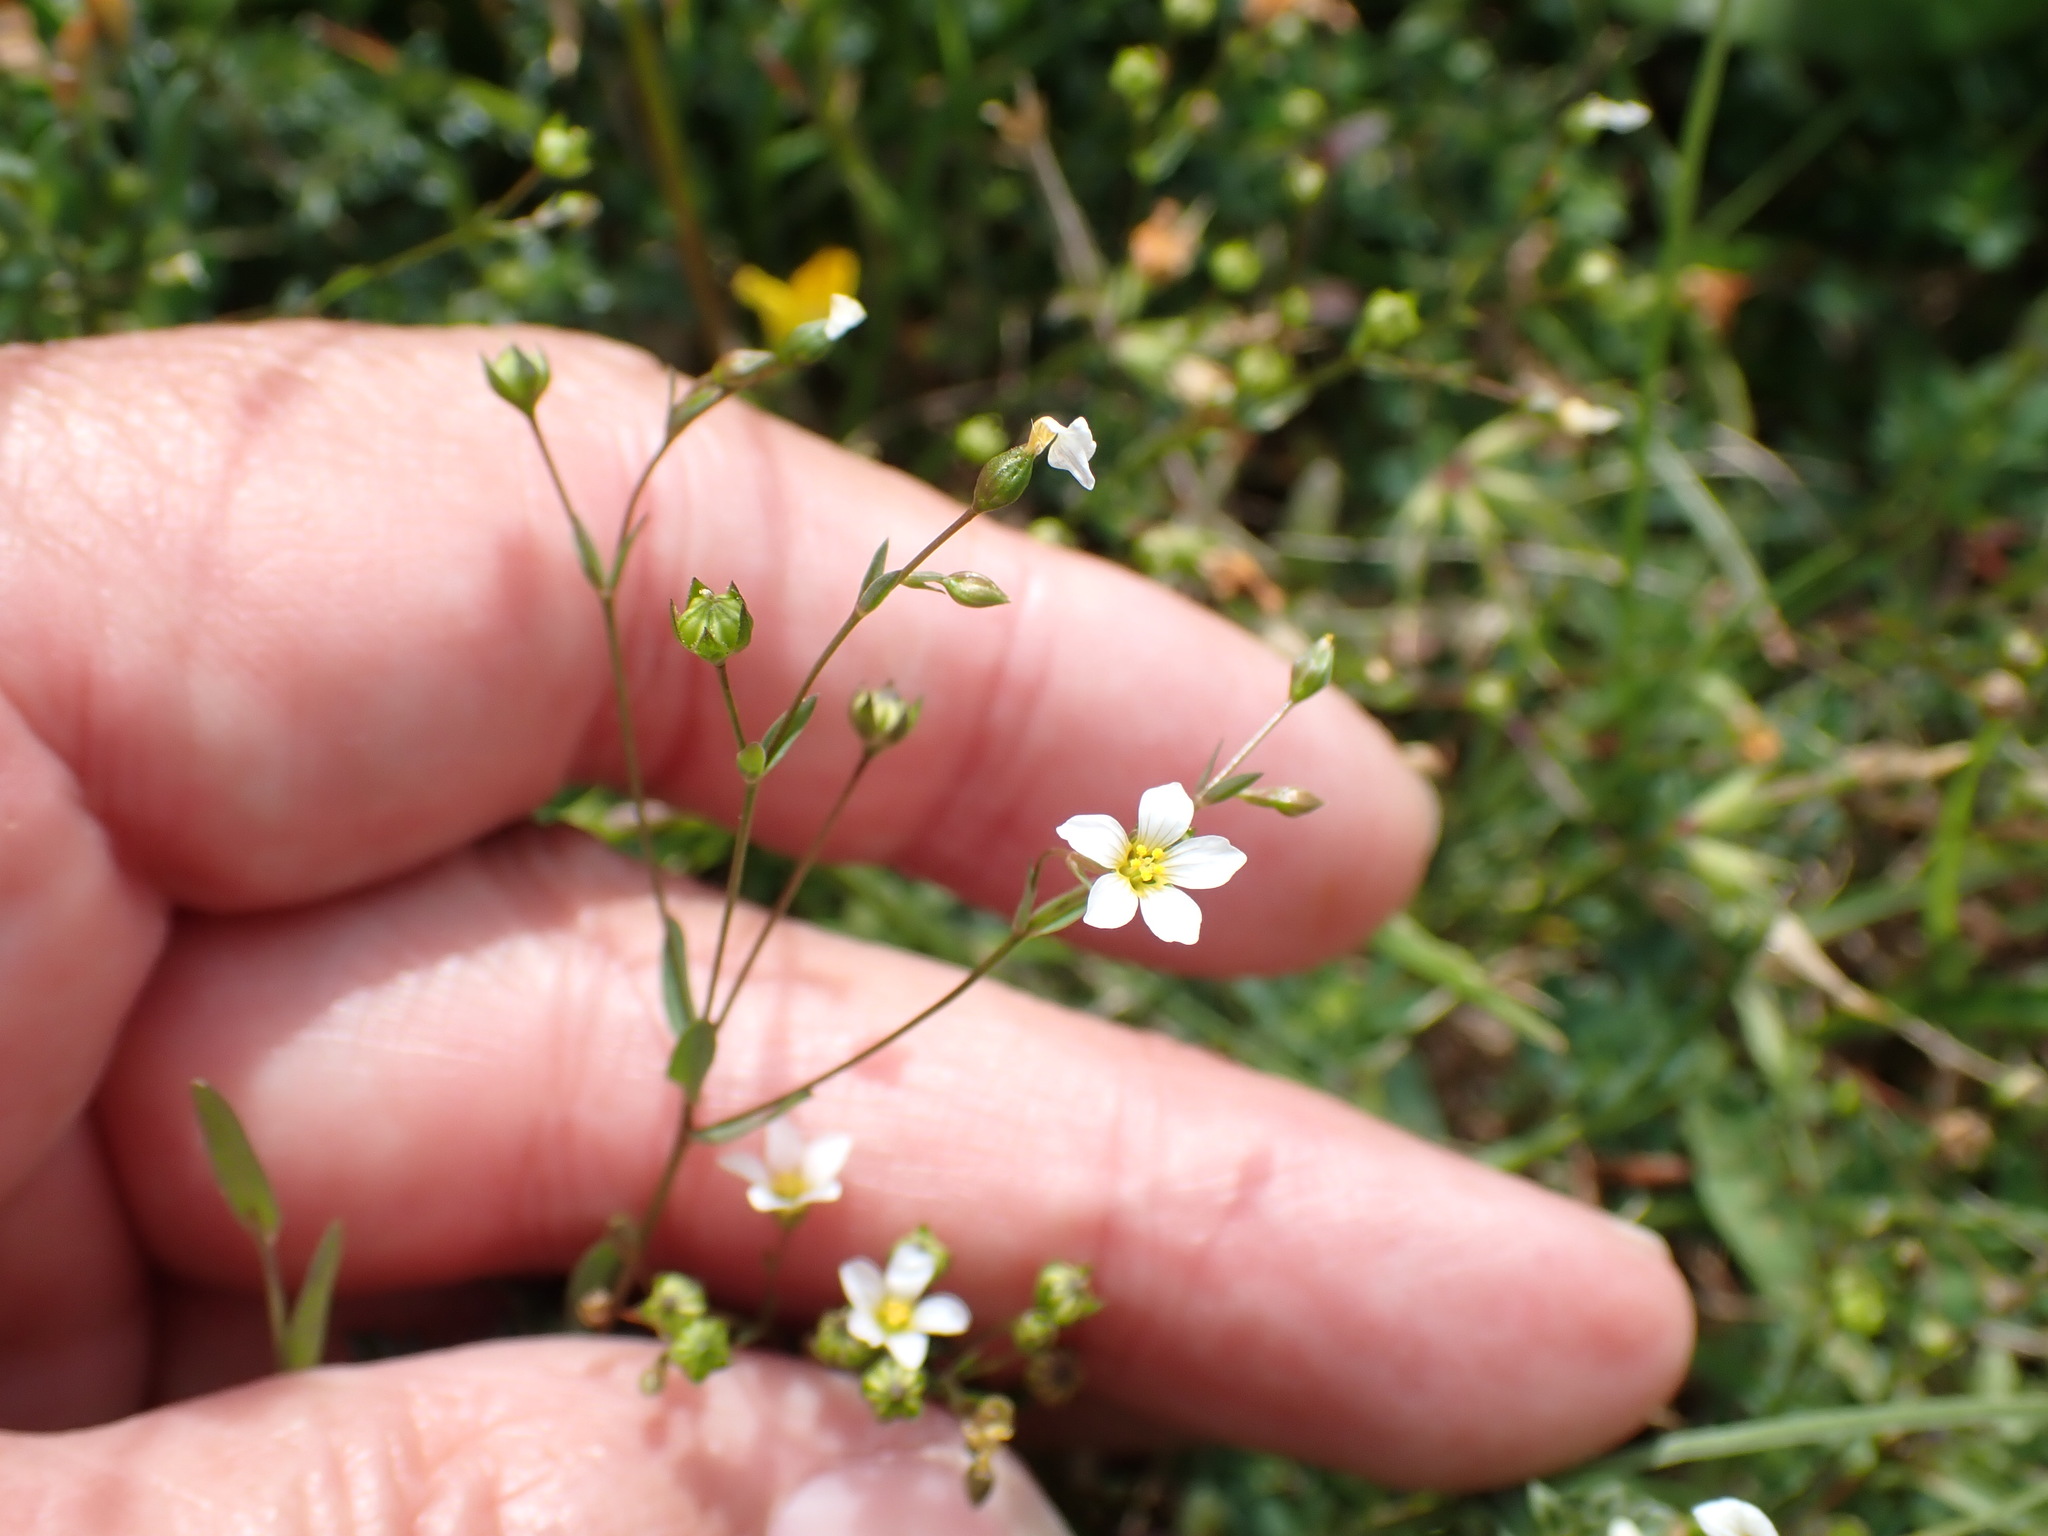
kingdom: Plantae
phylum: Tracheophyta
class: Magnoliopsida
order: Malpighiales
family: Linaceae
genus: Linum
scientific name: Linum catharticum
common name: Fairy flax
